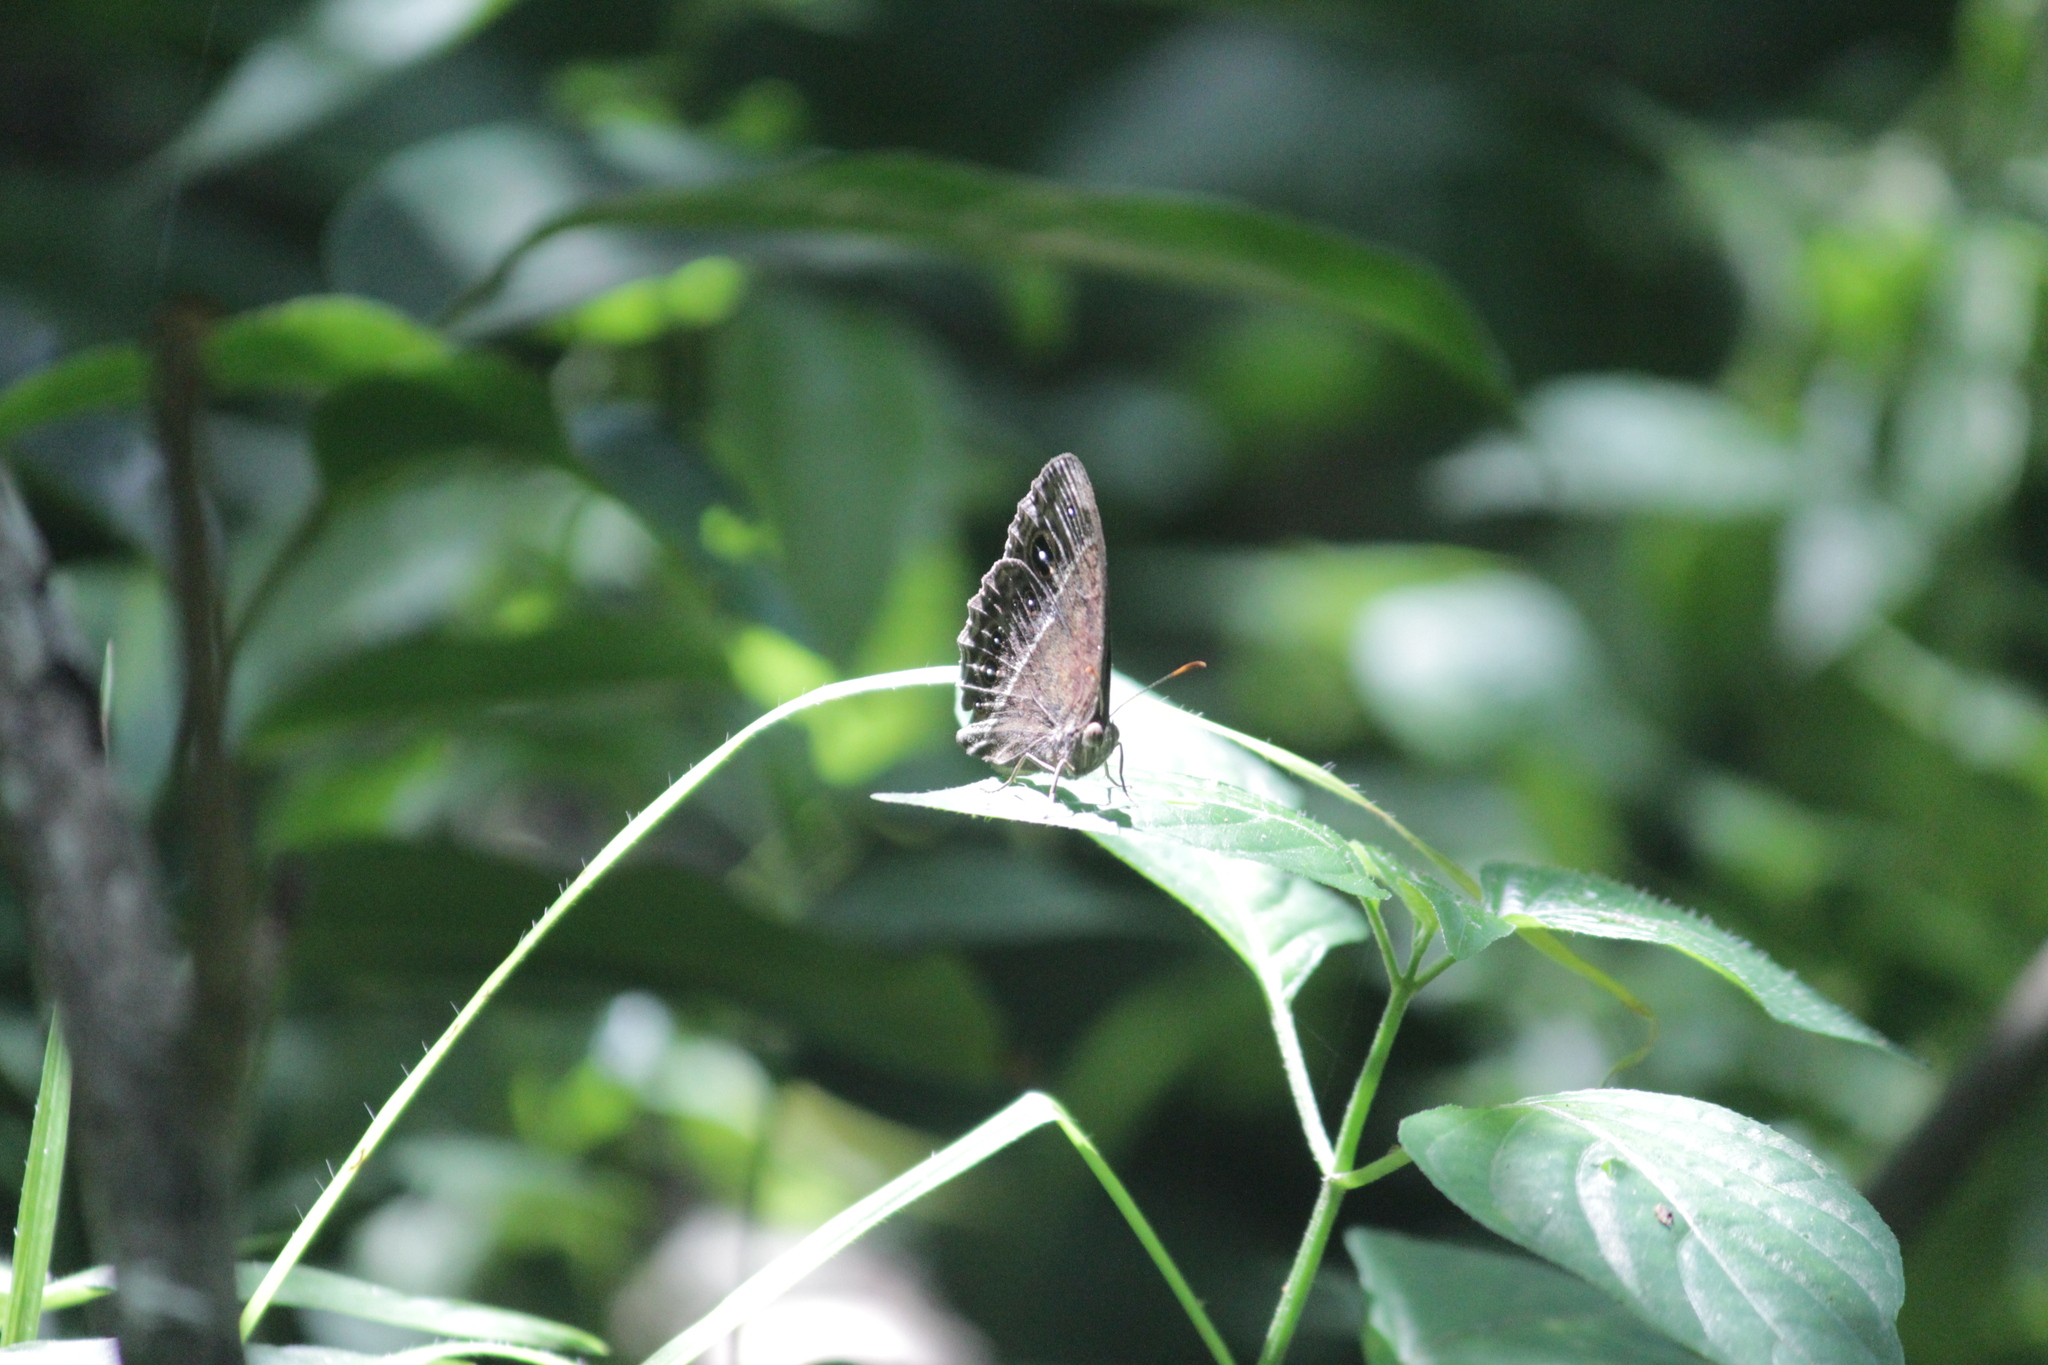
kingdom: Animalia
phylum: Arthropoda
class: Insecta
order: Lepidoptera
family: Nymphalidae
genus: Mycalesis
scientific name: Mycalesis rhacotis
